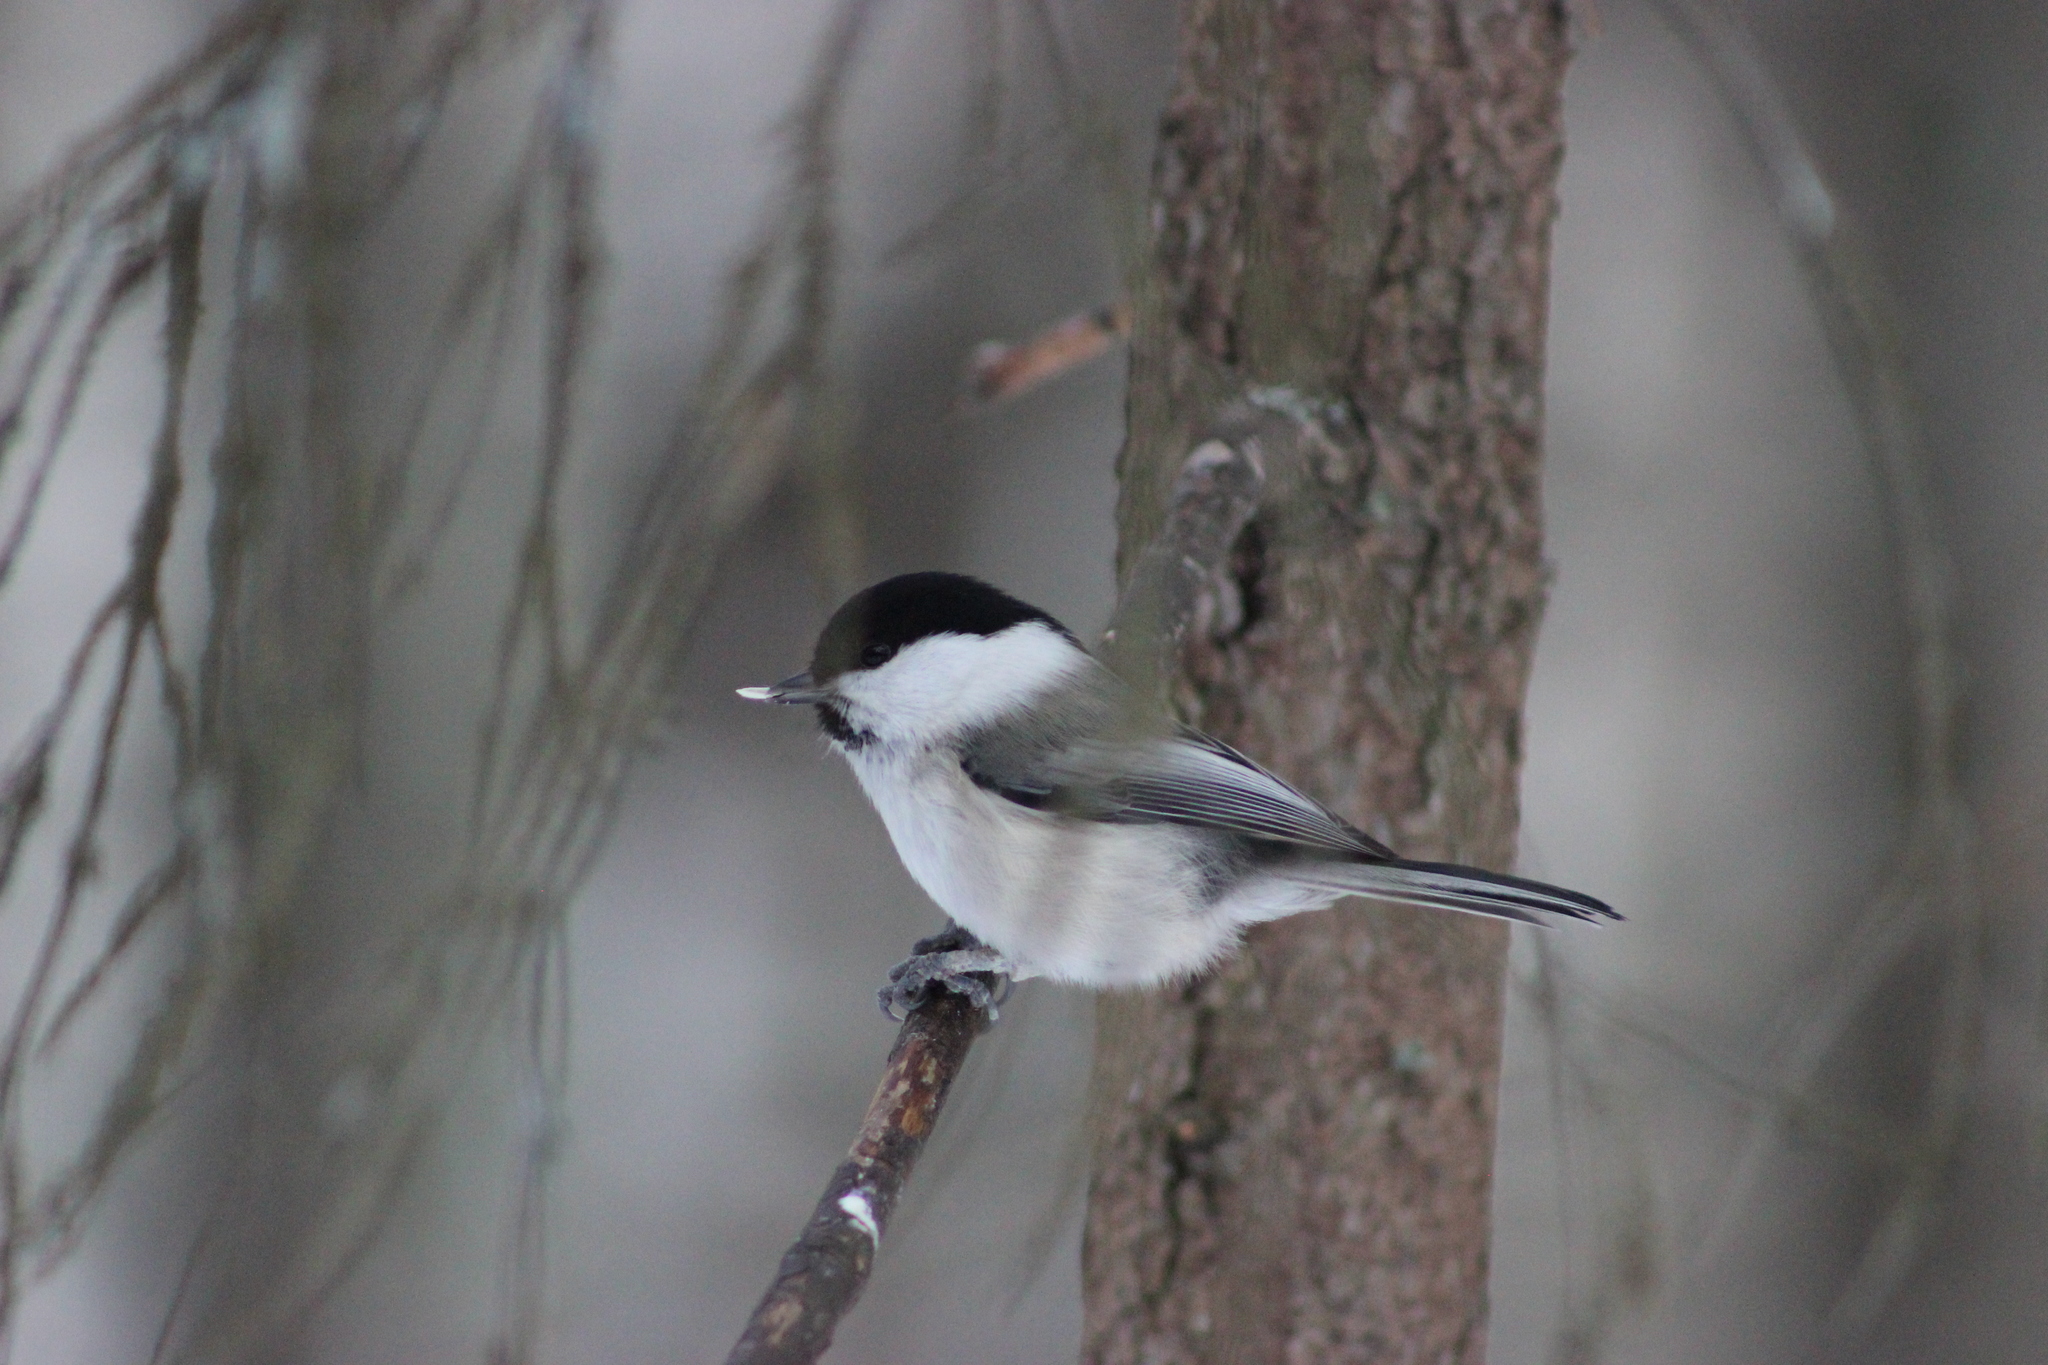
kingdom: Animalia
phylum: Chordata
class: Aves
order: Passeriformes
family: Paridae
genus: Poecile
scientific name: Poecile montanus
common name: Willow tit
